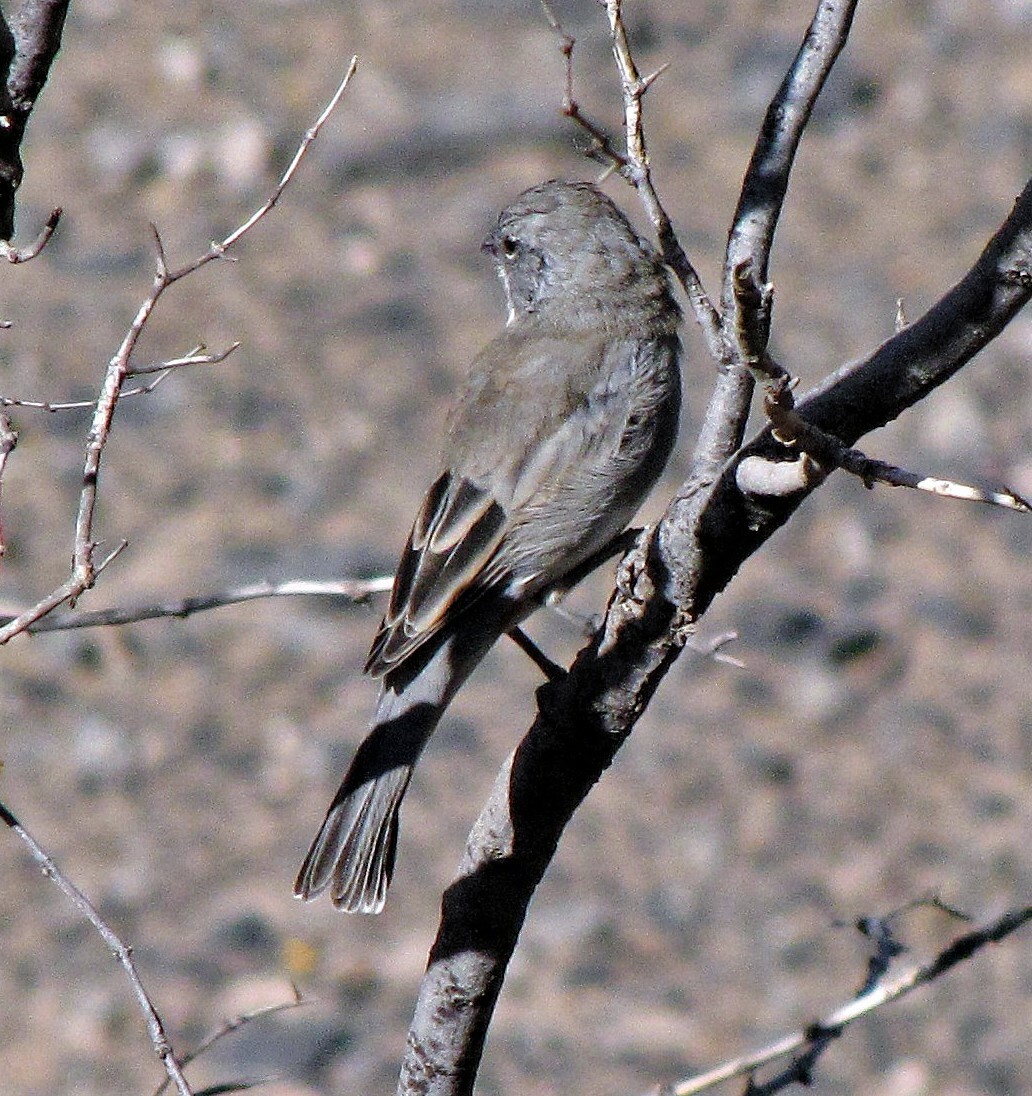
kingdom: Animalia
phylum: Chordata
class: Aves
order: Passeriformes
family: Thraupidae
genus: Diuca
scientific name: Diuca diuca
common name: Common diuca finch
